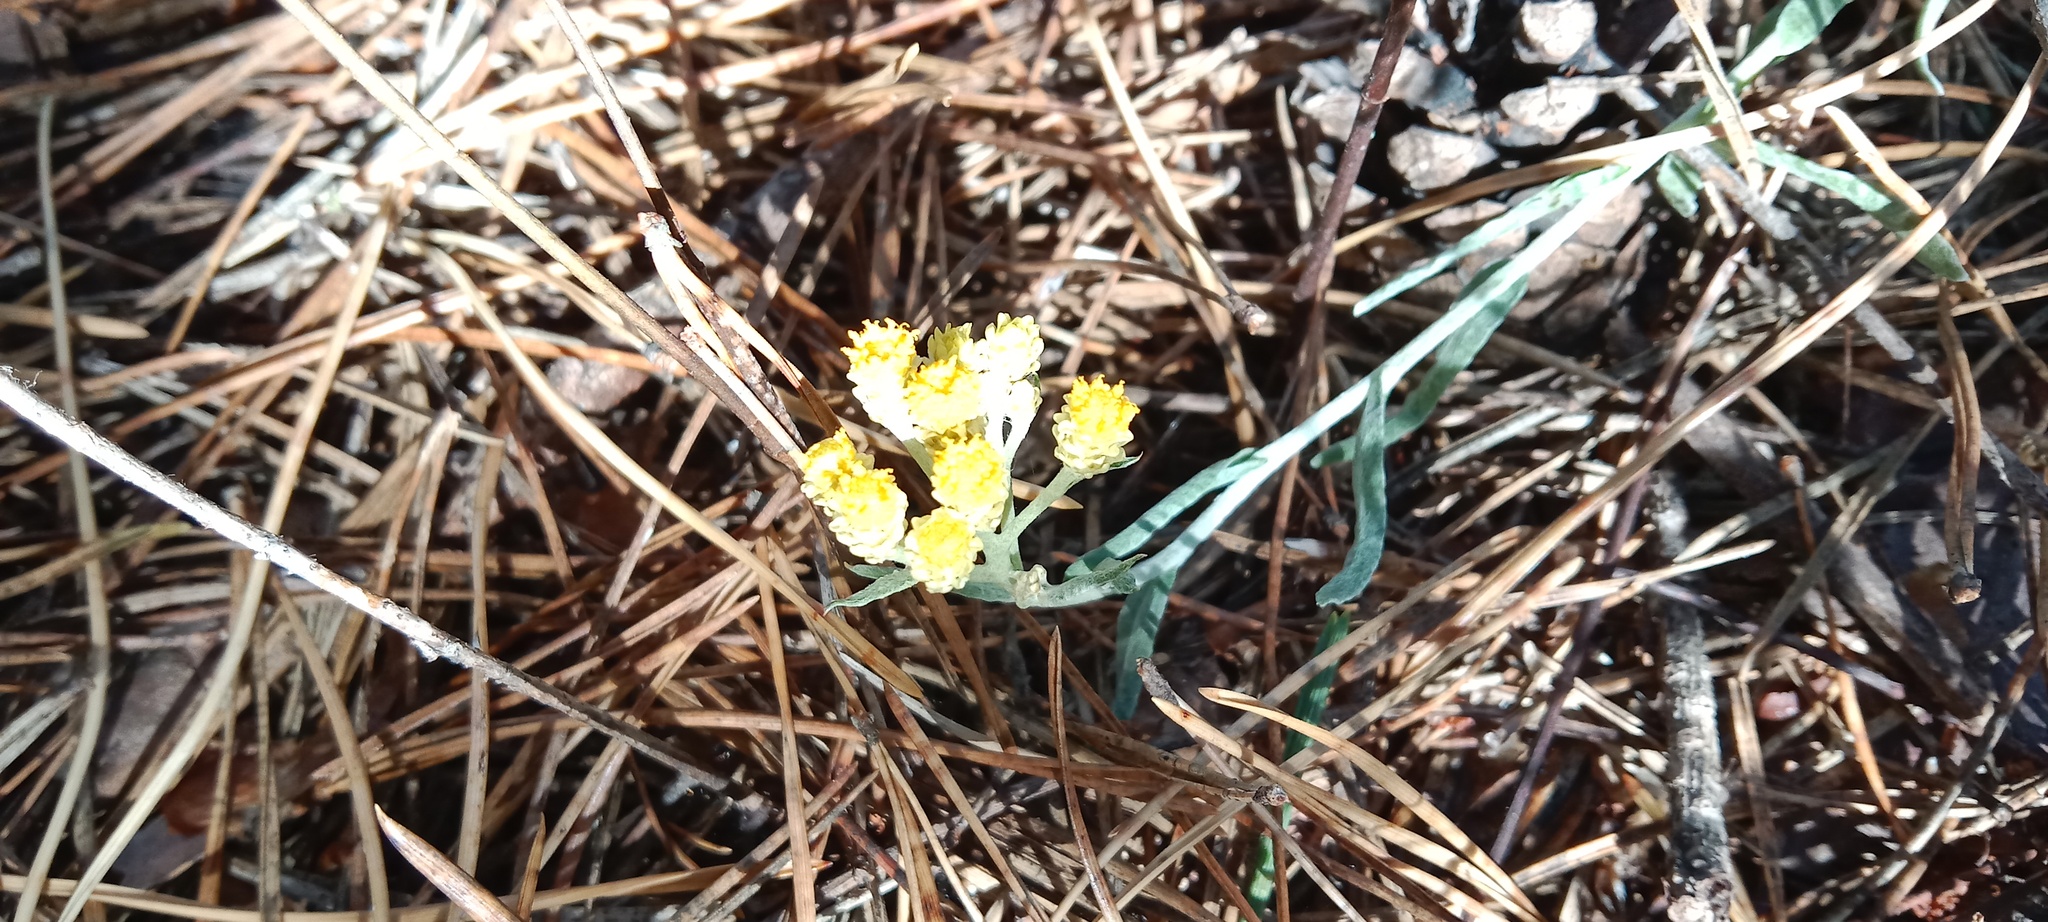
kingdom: Plantae
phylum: Tracheophyta
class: Magnoliopsida
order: Asterales
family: Asteraceae
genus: Helichrysum
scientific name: Helichrysum arenarium
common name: Strawflower
